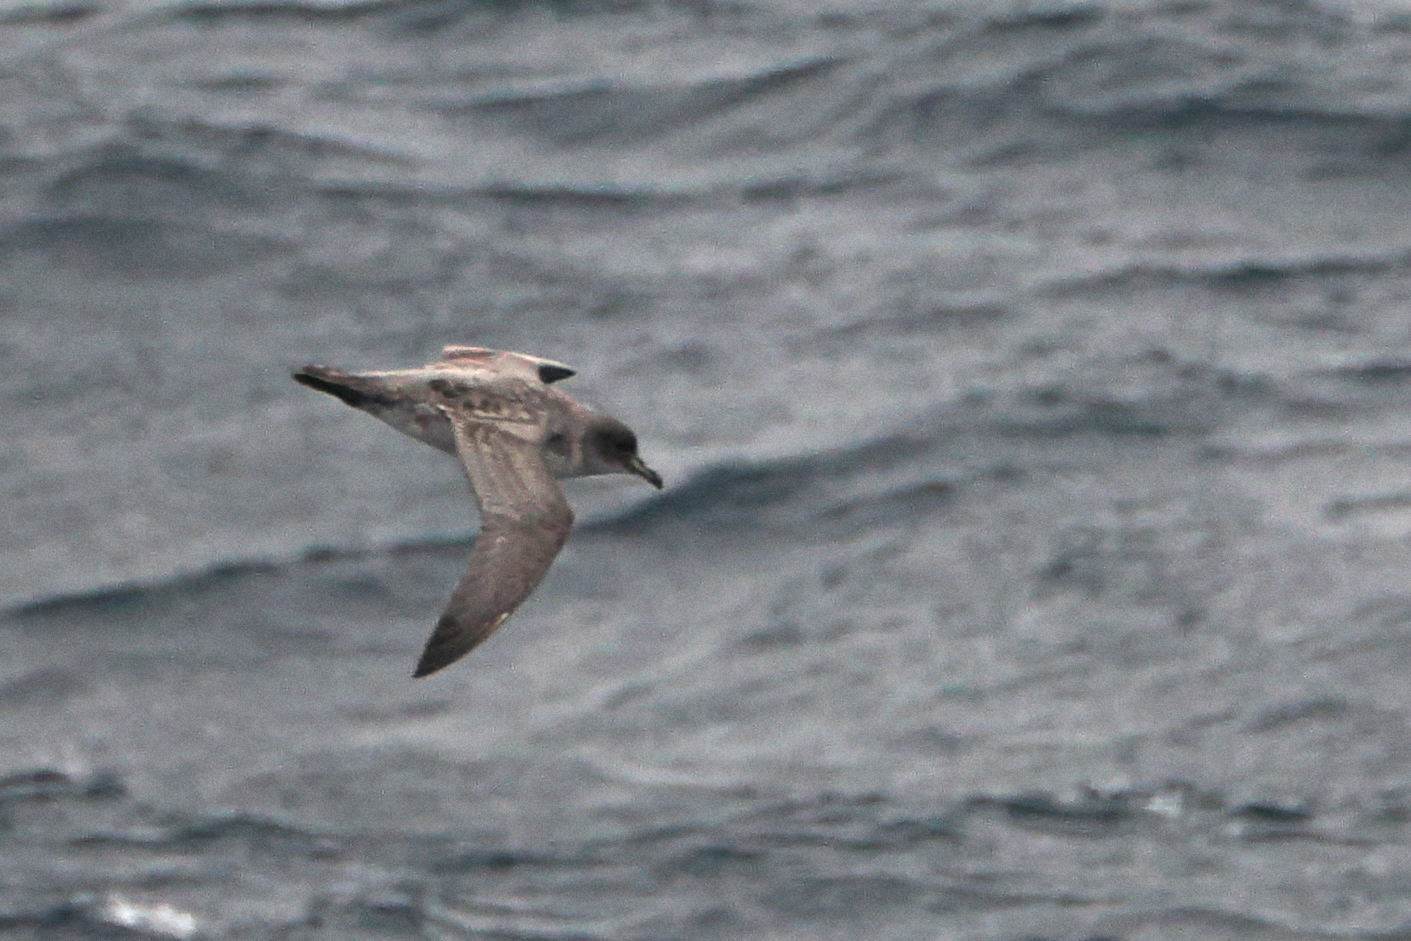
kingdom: Animalia
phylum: Chordata
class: Aves
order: Procellariiformes
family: Procellariidae
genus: Procellaria
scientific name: Procellaria cinerea
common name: Grey petrel
